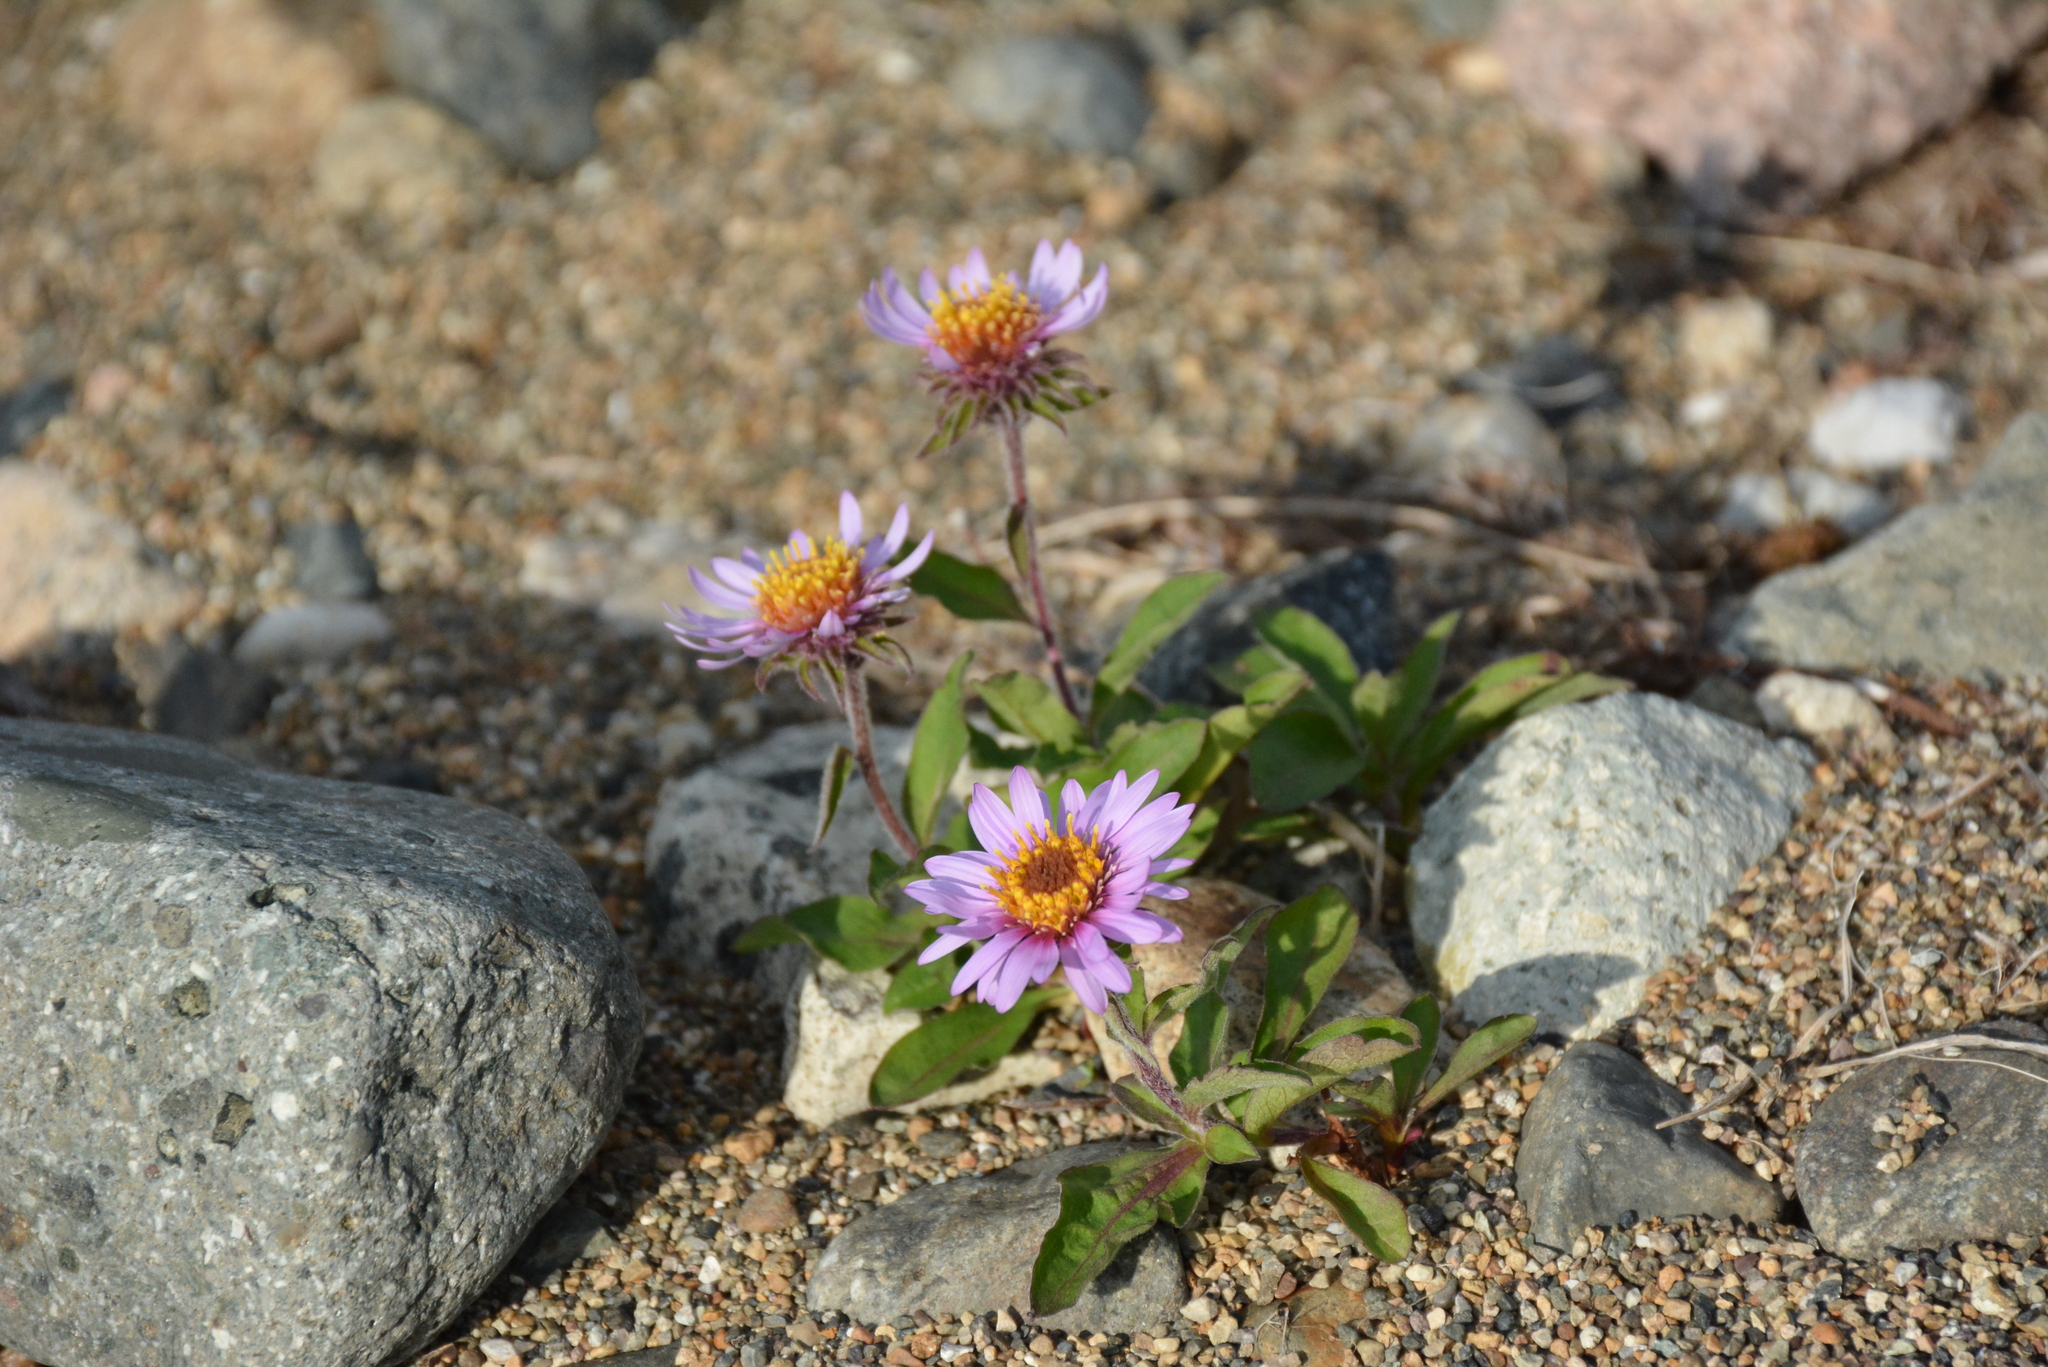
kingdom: Plantae
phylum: Tracheophyta
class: Magnoliopsida
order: Asterales
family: Asteraceae
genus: Eurybia
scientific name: Eurybia sibirica
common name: Arctic aster
